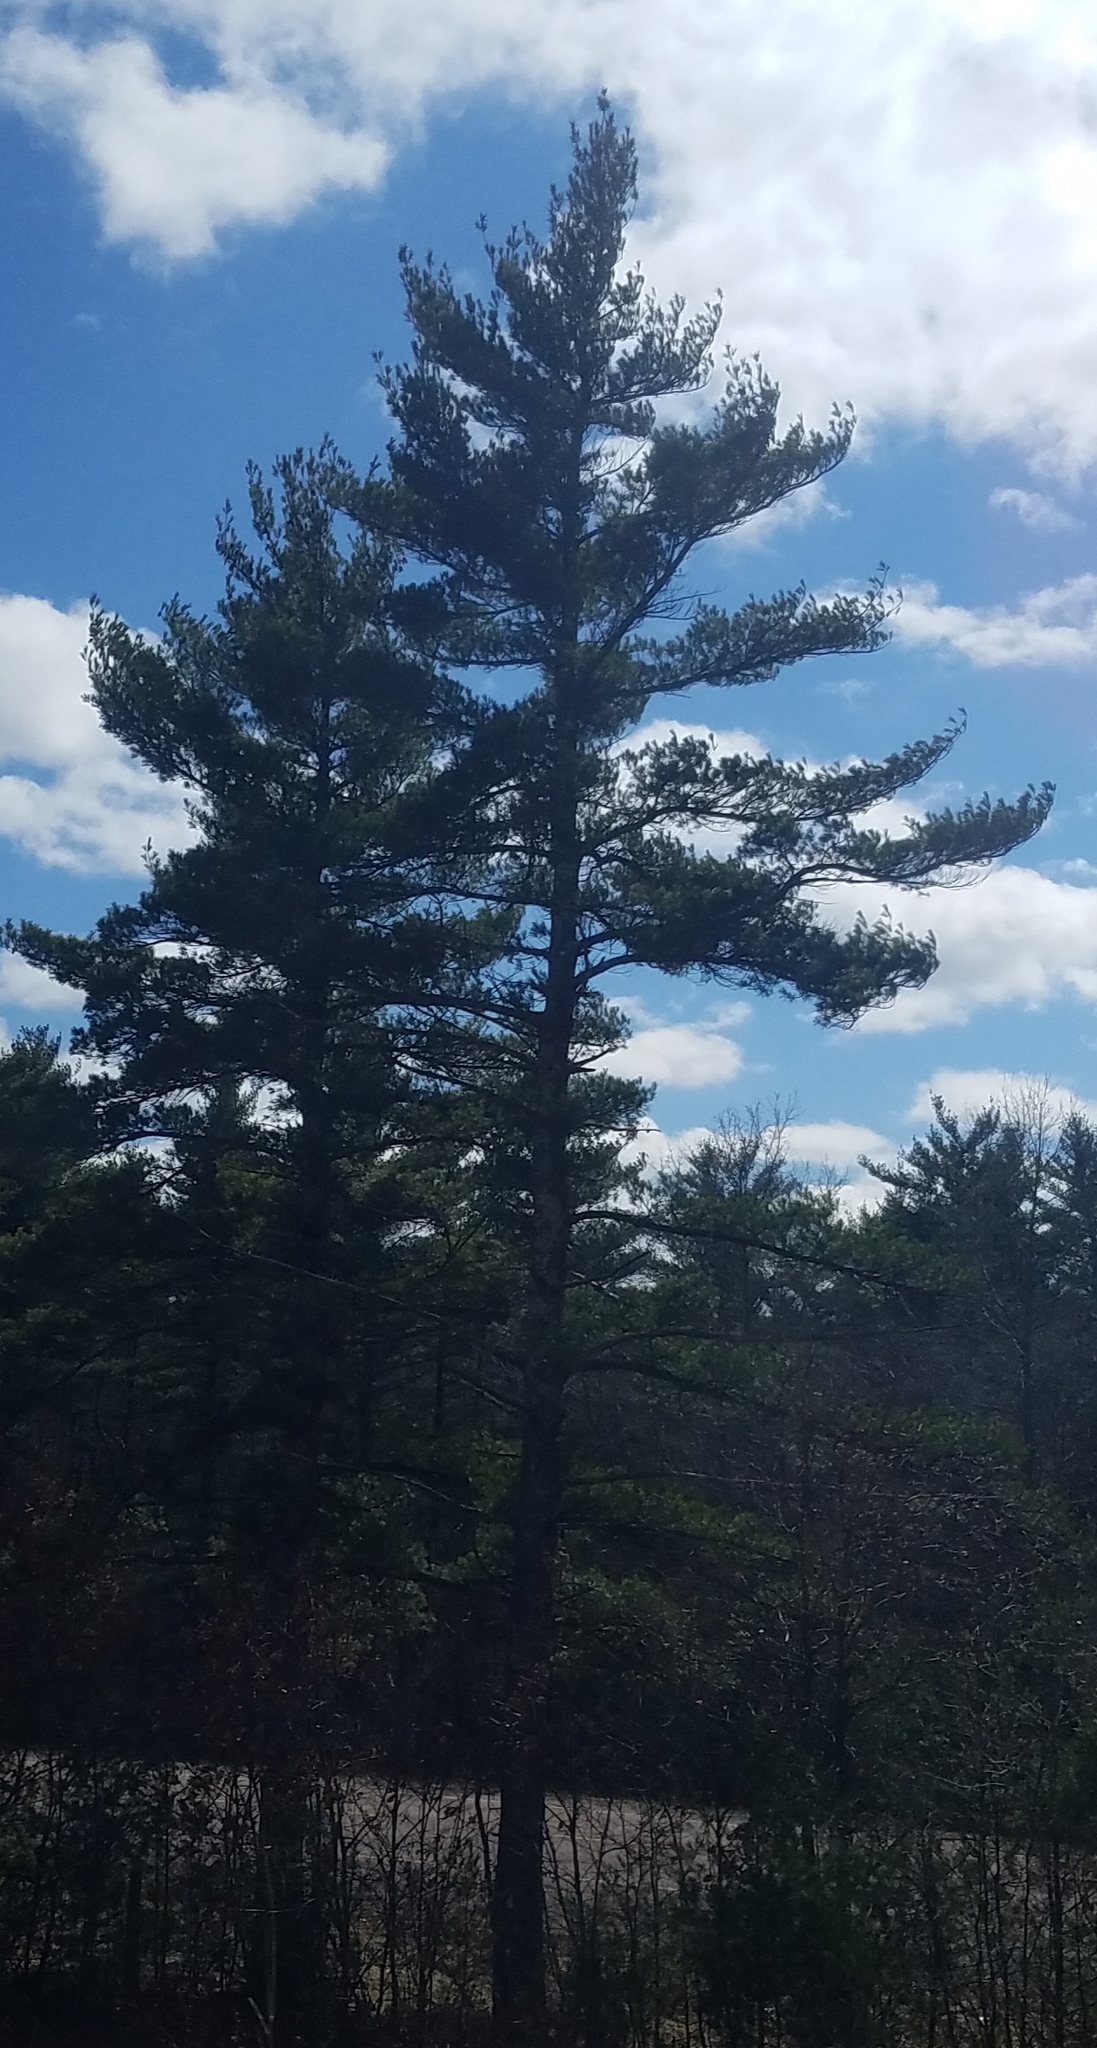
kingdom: Plantae
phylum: Tracheophyta
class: Pinopsida
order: Pinales
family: Pinaceae
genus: Pinus
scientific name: Pinus strobus
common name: Weymouth pine
